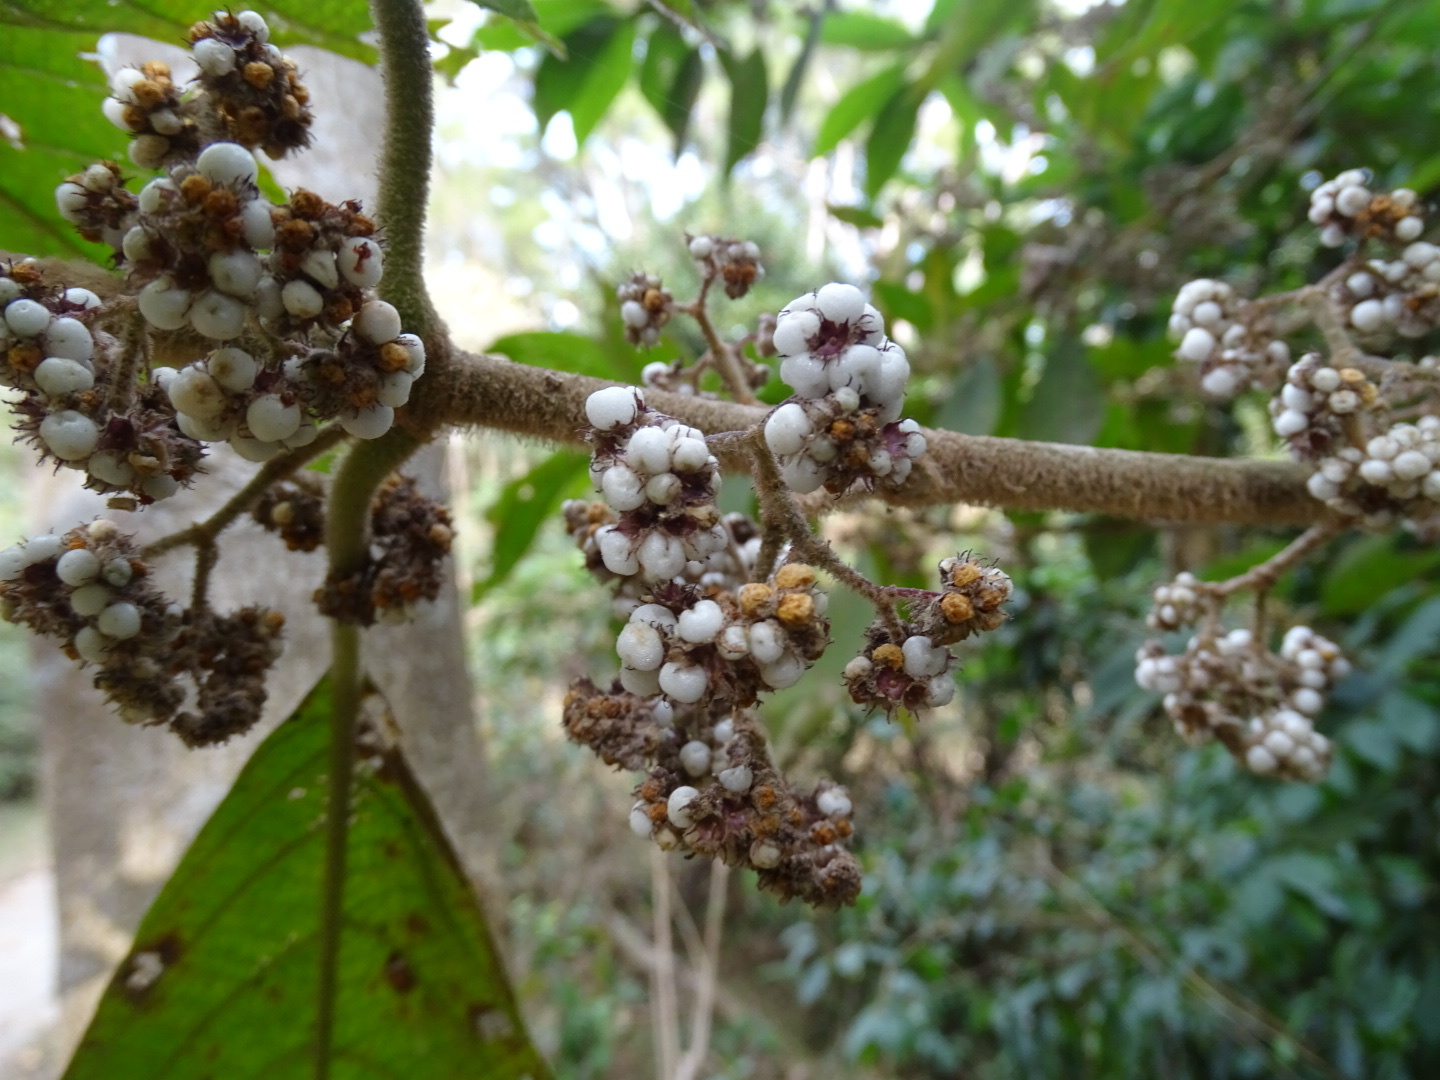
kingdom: Plantae
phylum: Tracheophyta
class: Magnoliopsida
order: Lamiales
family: Lamiaceae
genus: Callicarpa
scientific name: Callicarpa kochiana
